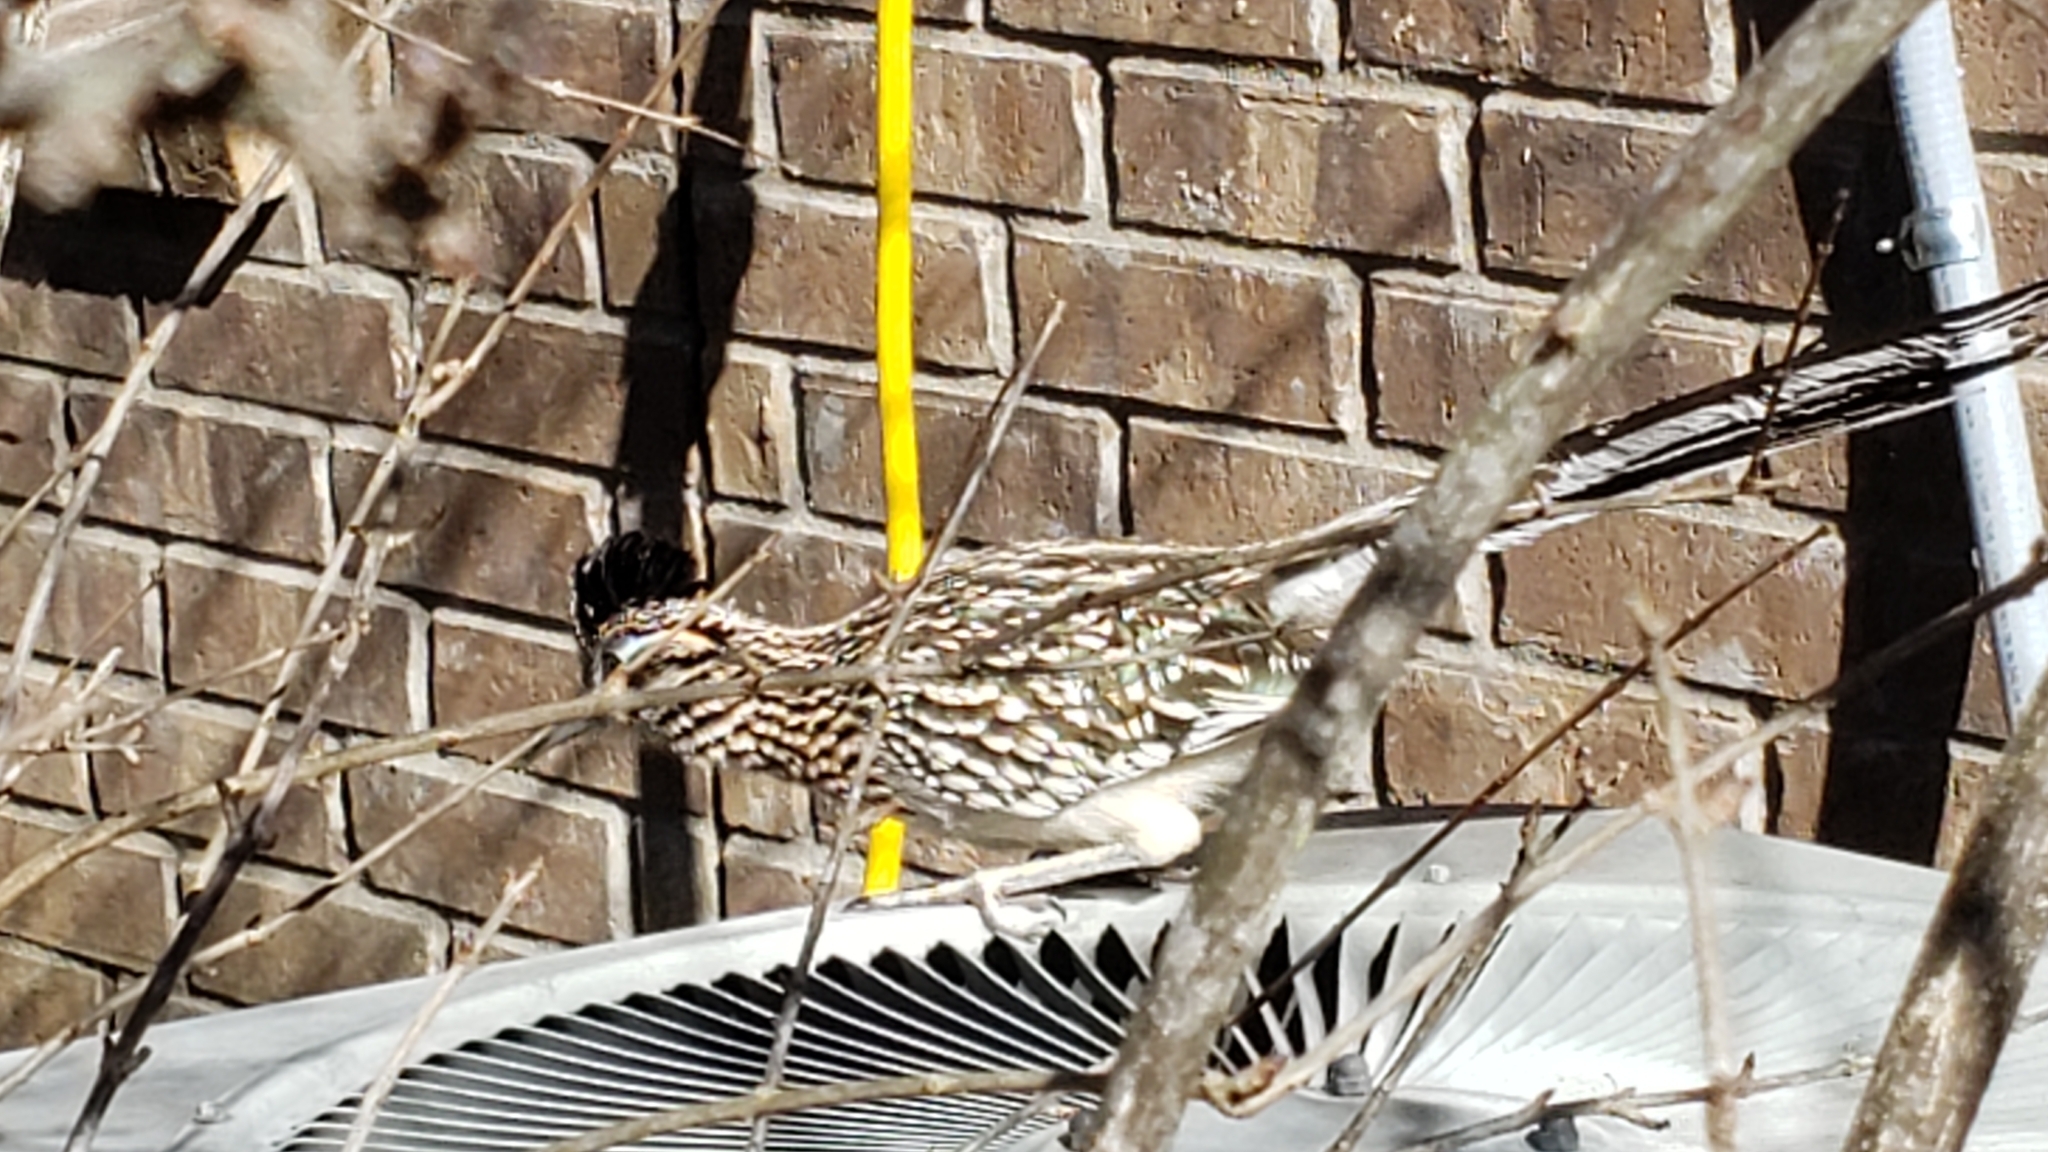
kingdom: Animalia
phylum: Chordata
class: Aves
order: Cuculiformes
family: Cuculidae
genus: Geococcyx
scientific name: Geococcyx californianus
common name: Greater roadrunner
